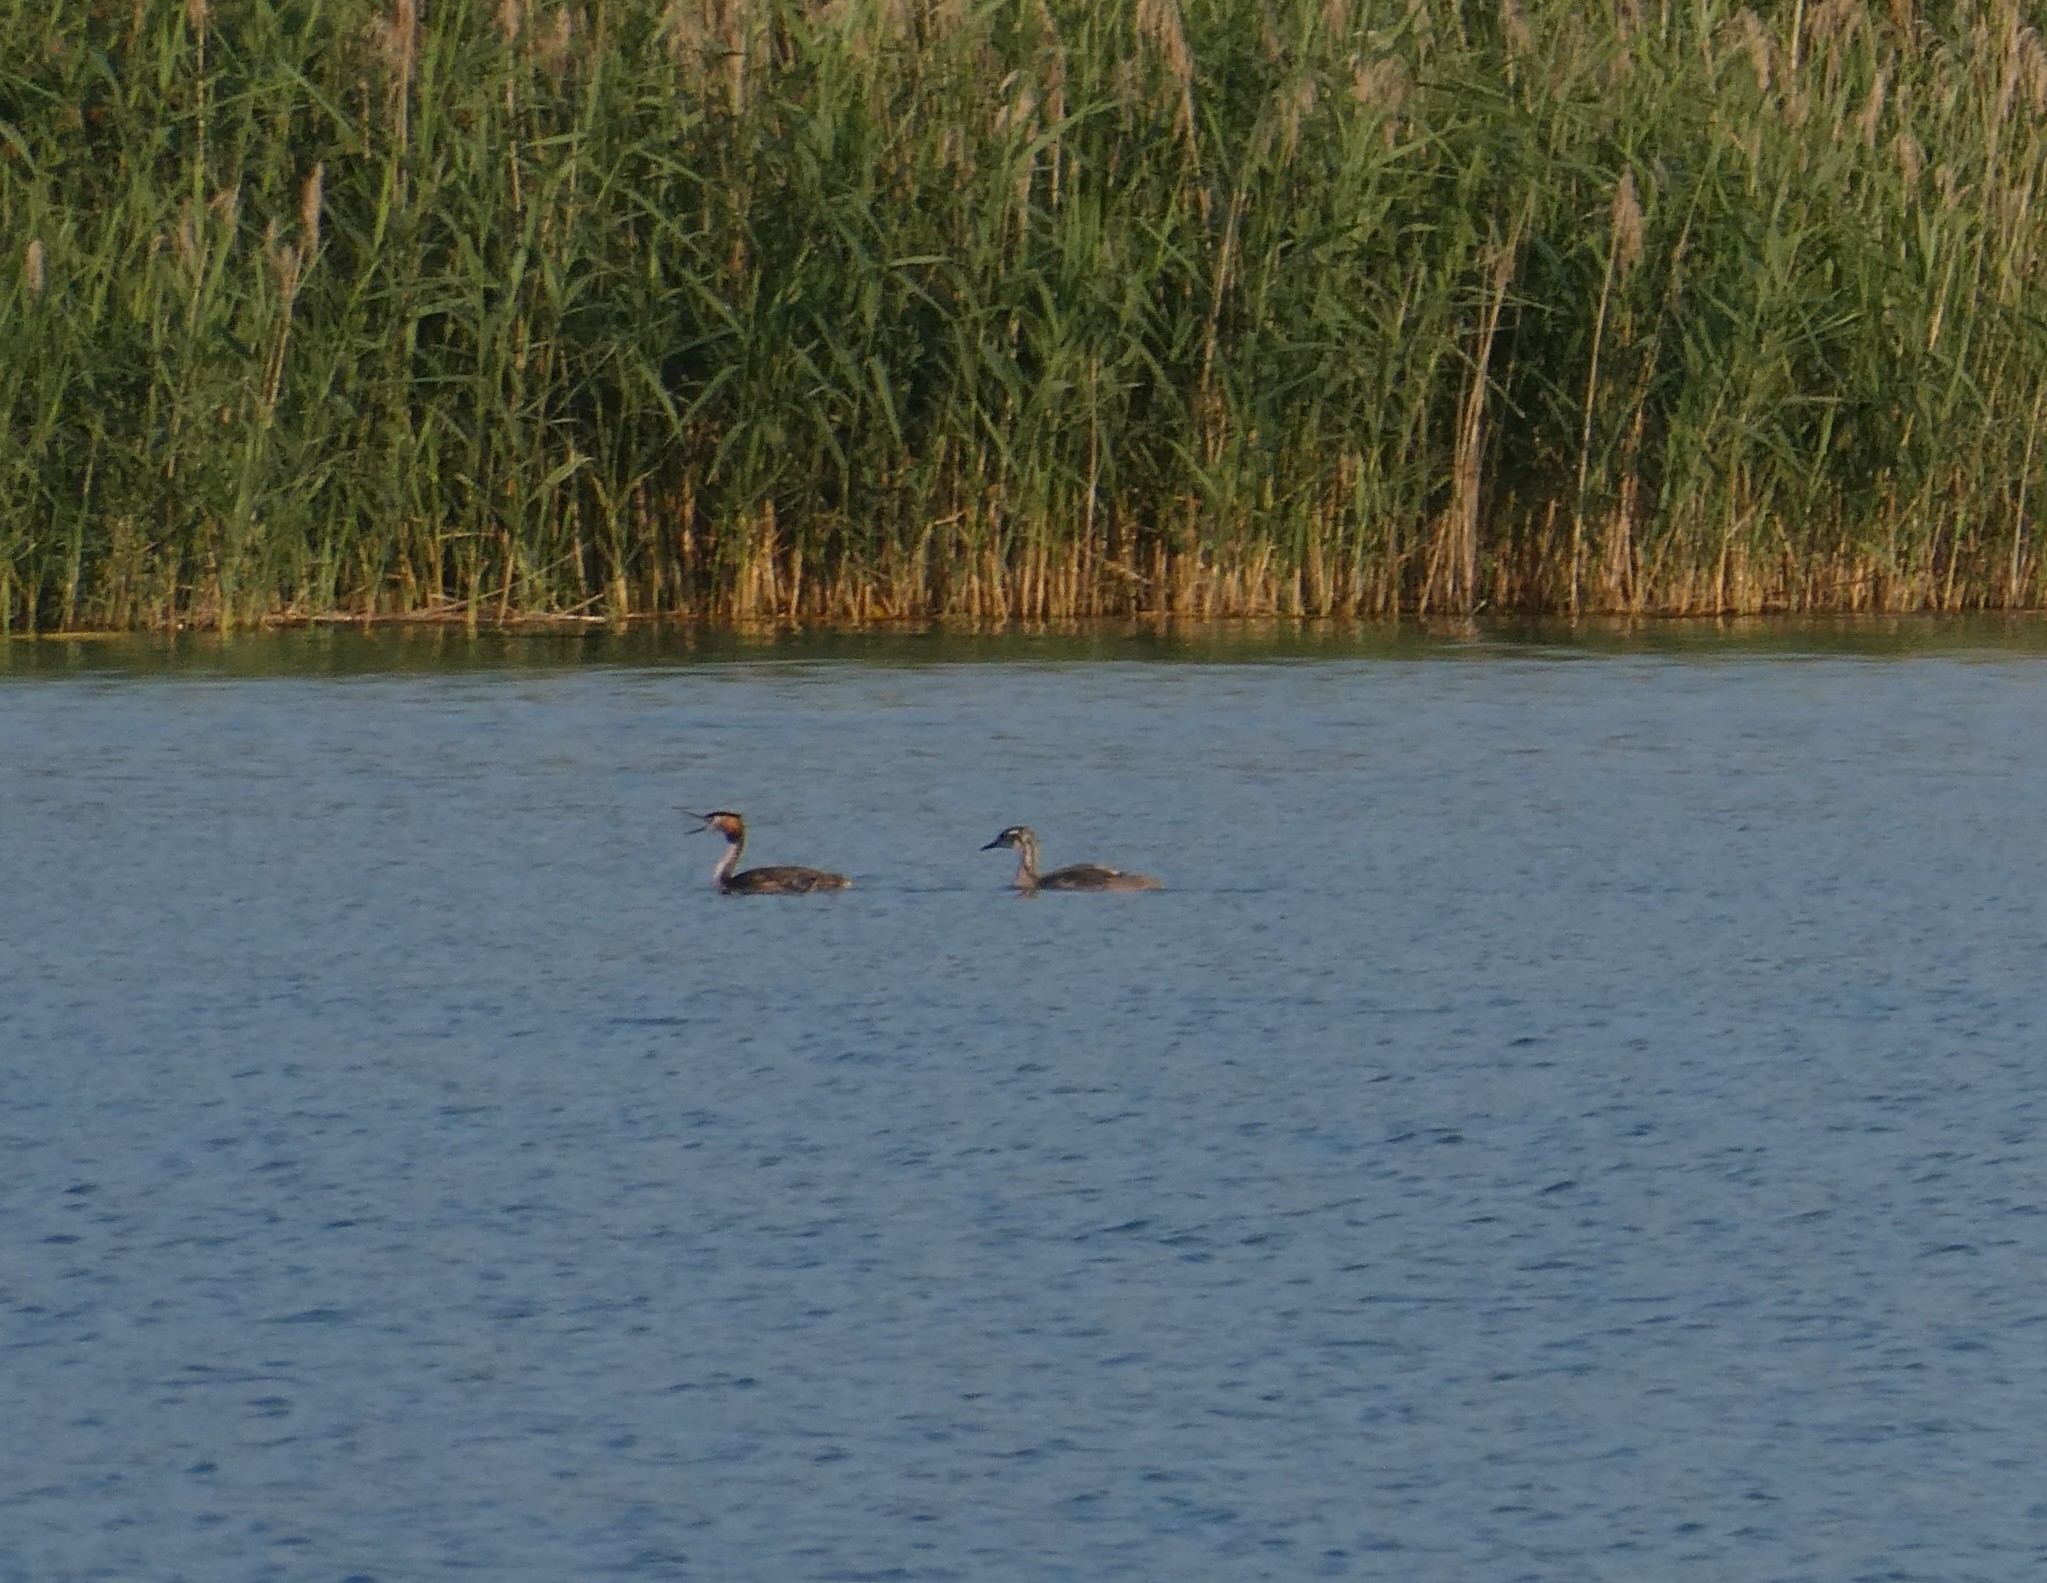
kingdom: Animalia
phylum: Chordata
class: Aves
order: Podicipediformes
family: Podicipedidae
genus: Podiceps
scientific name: Podiceps cristatus
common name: Great crested grebe
